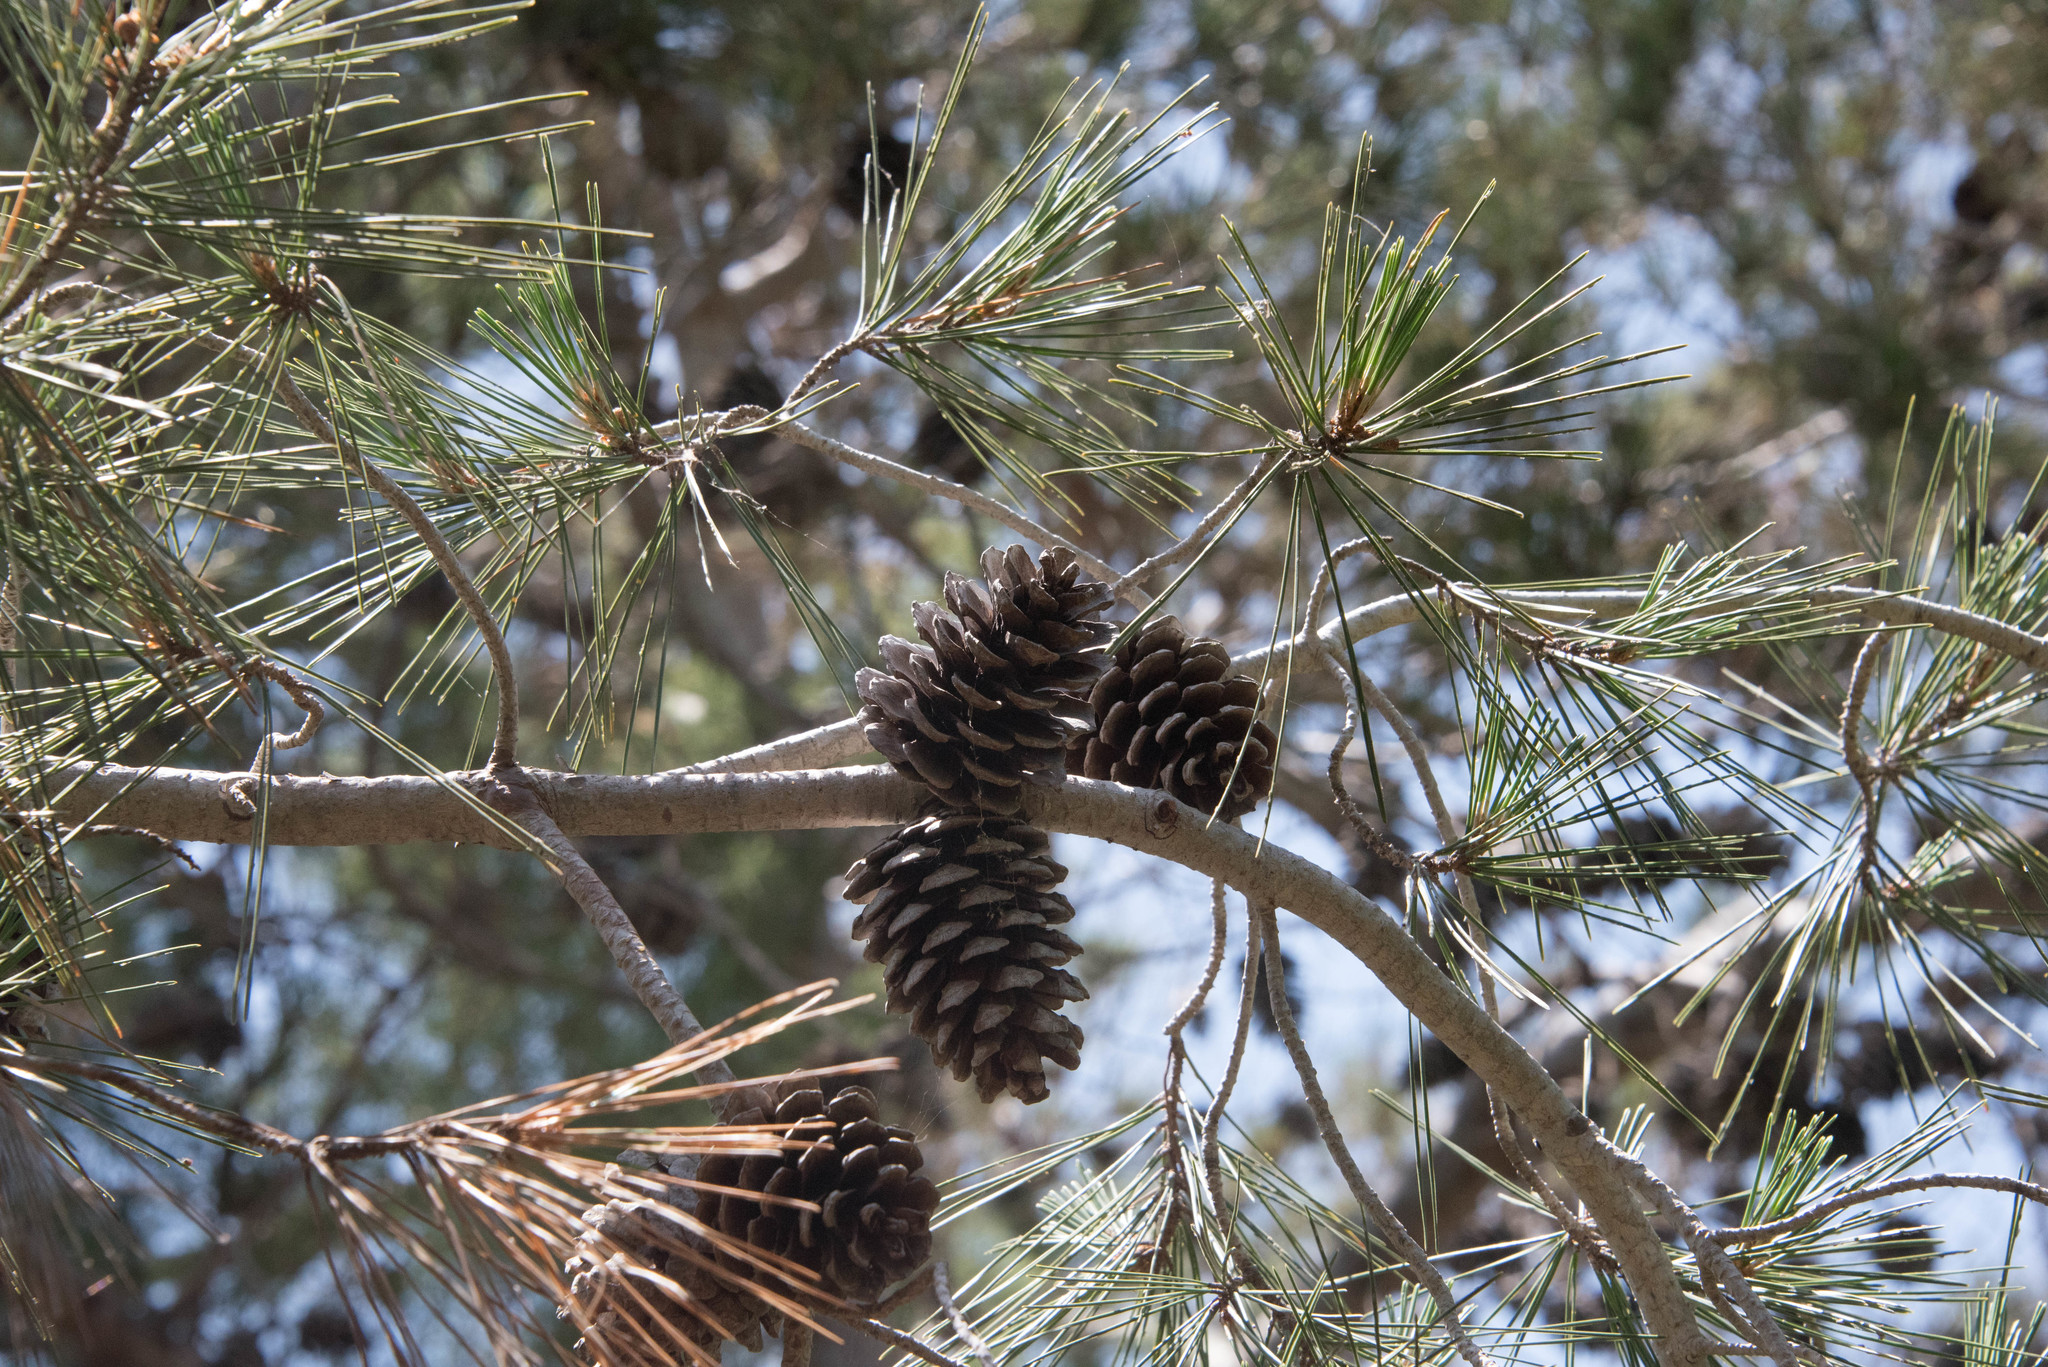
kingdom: Plantae
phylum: Tracheophyta
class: Pinopsida
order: Pinales
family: Pinaceae
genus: Pinus
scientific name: Pinus halepensis
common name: Aleppo pine
